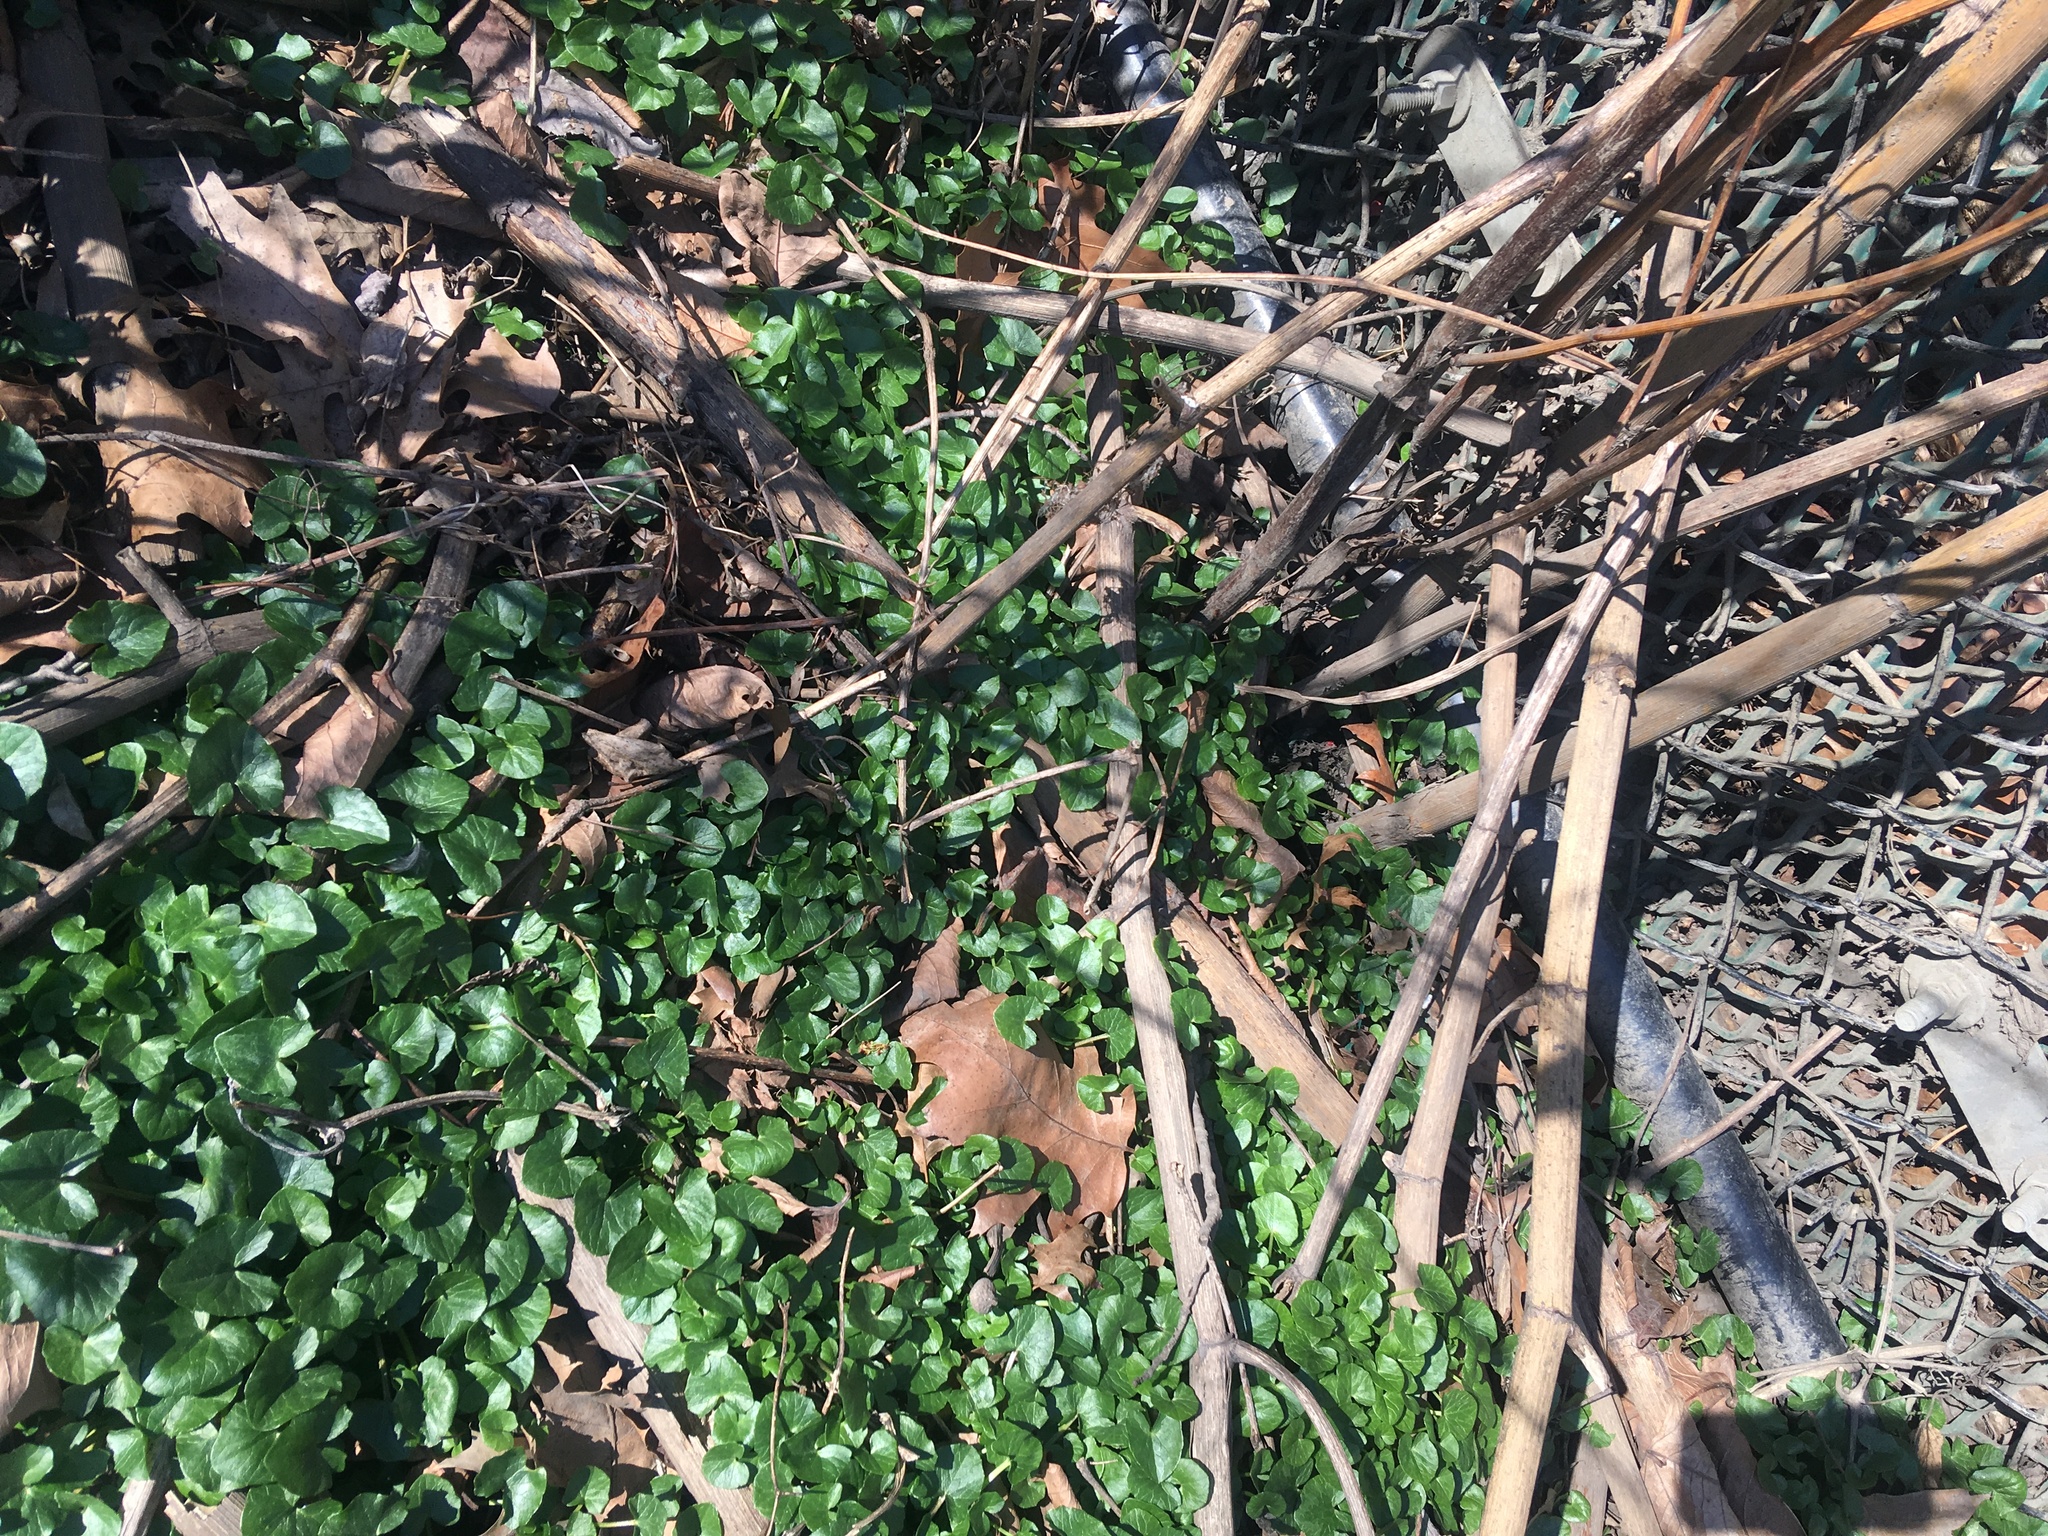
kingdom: Plantae
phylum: Tracheophyta
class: Magnoliopsida
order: Ranunculales
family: Ranunculaceae
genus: Ficaria
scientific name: Ficaria verna
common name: Lesser celandine
